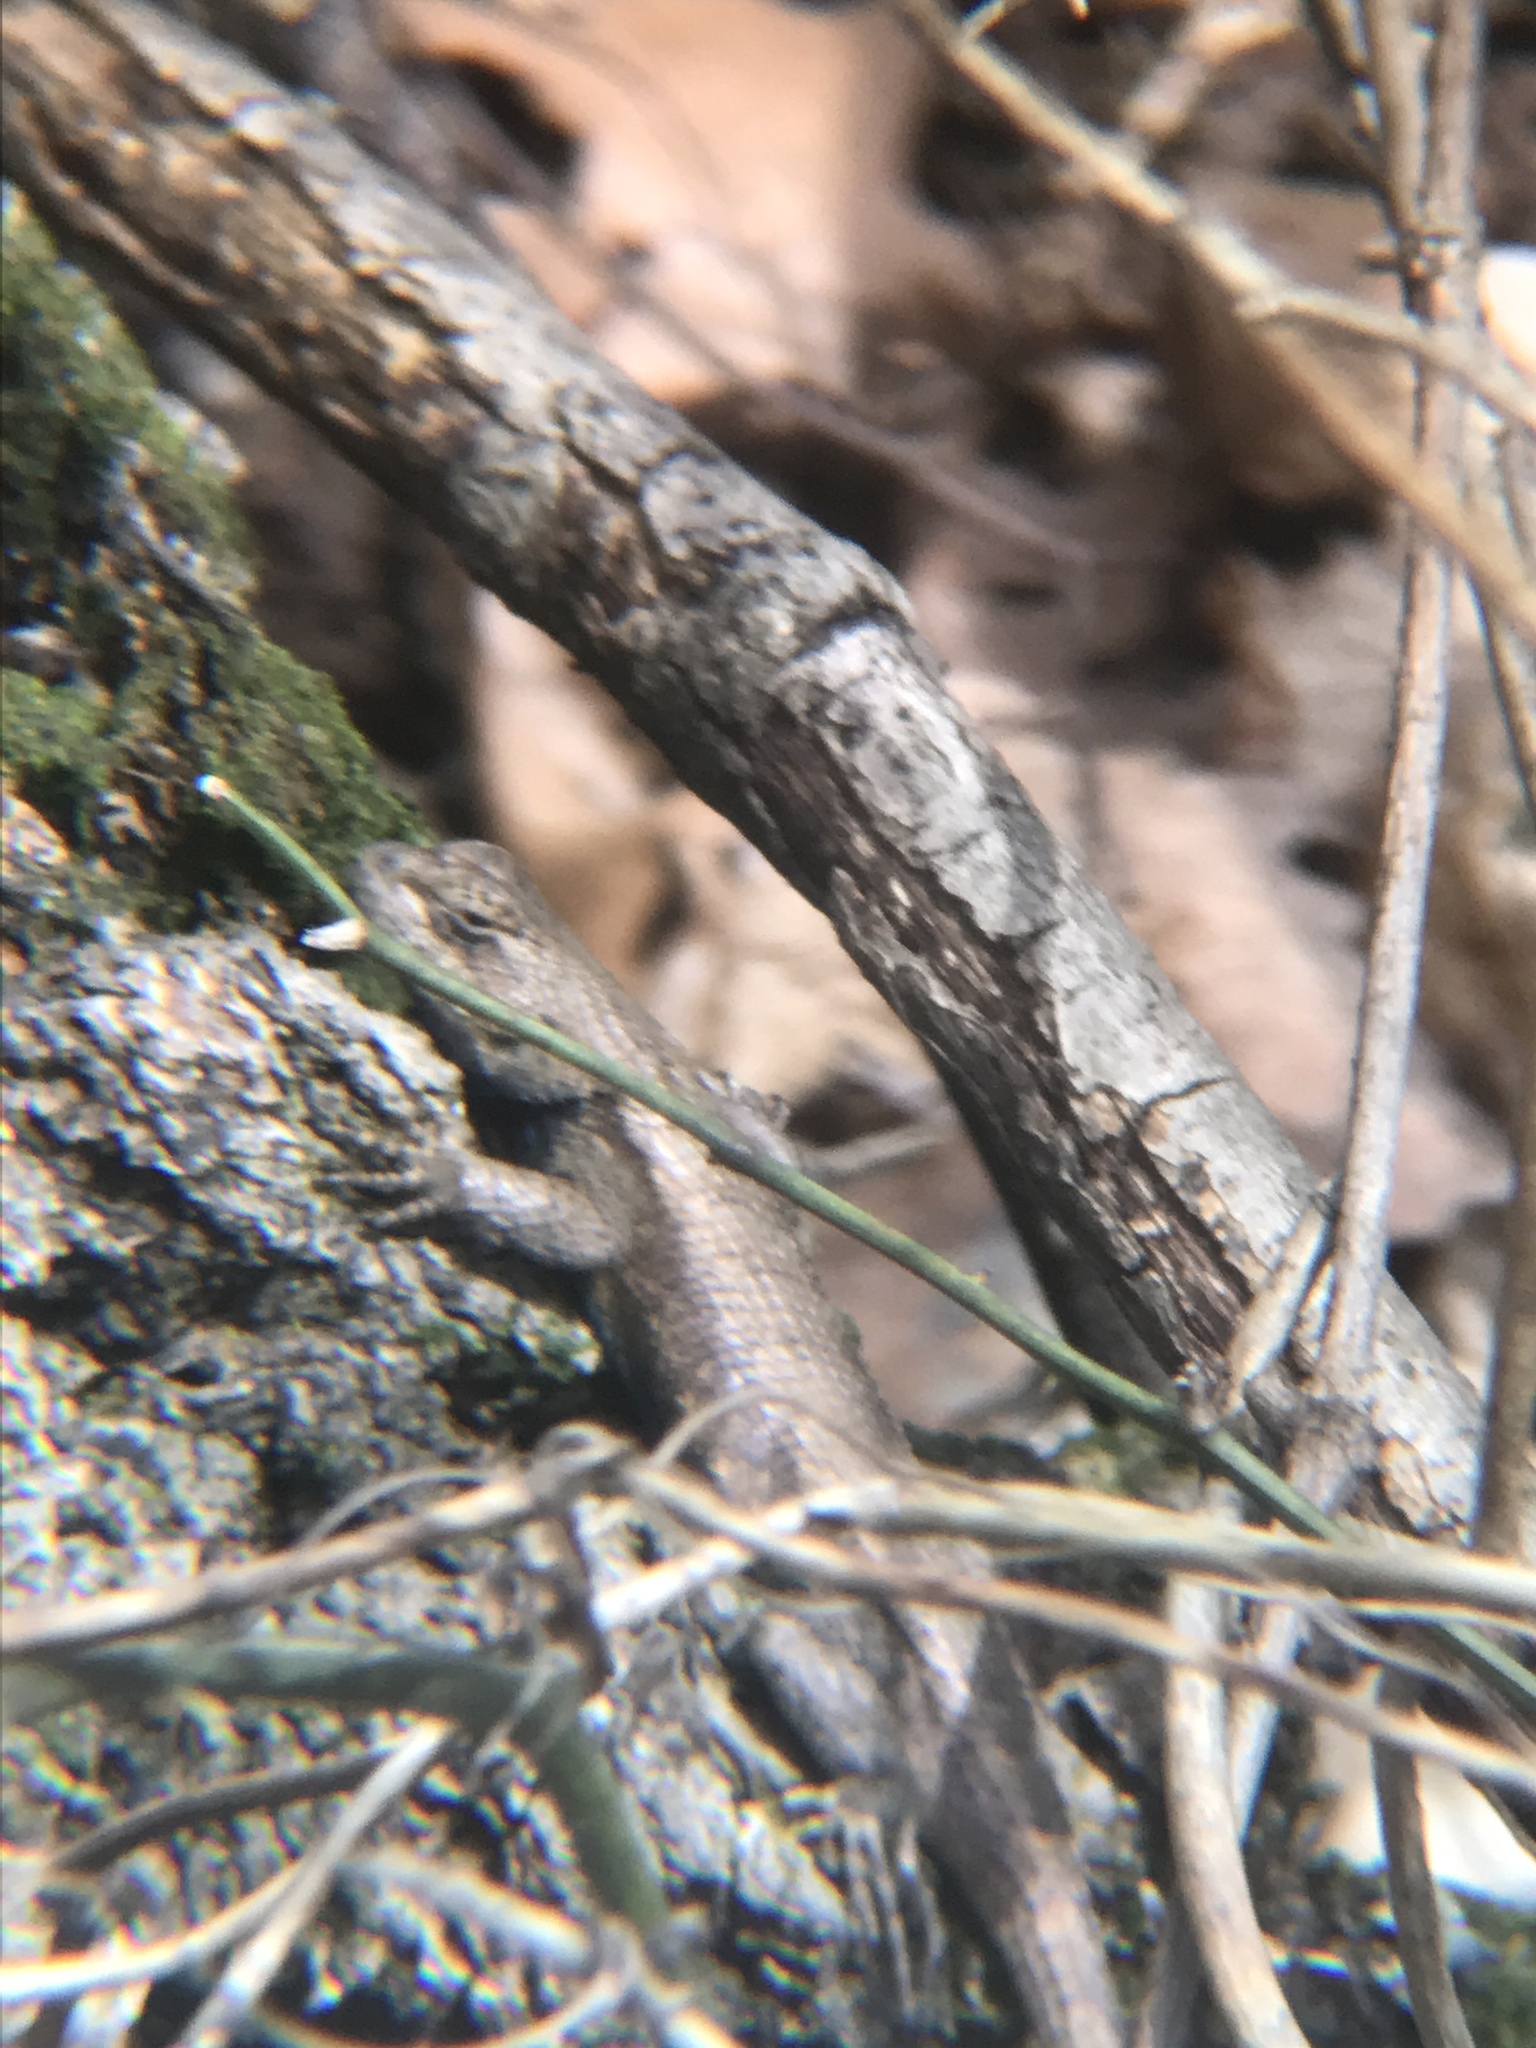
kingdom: Animalia
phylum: Chordata
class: Squamata
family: Phrynosomatidae
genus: Sceloporus
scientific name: Sceloporus undulatus
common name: Eastern fence lizard
